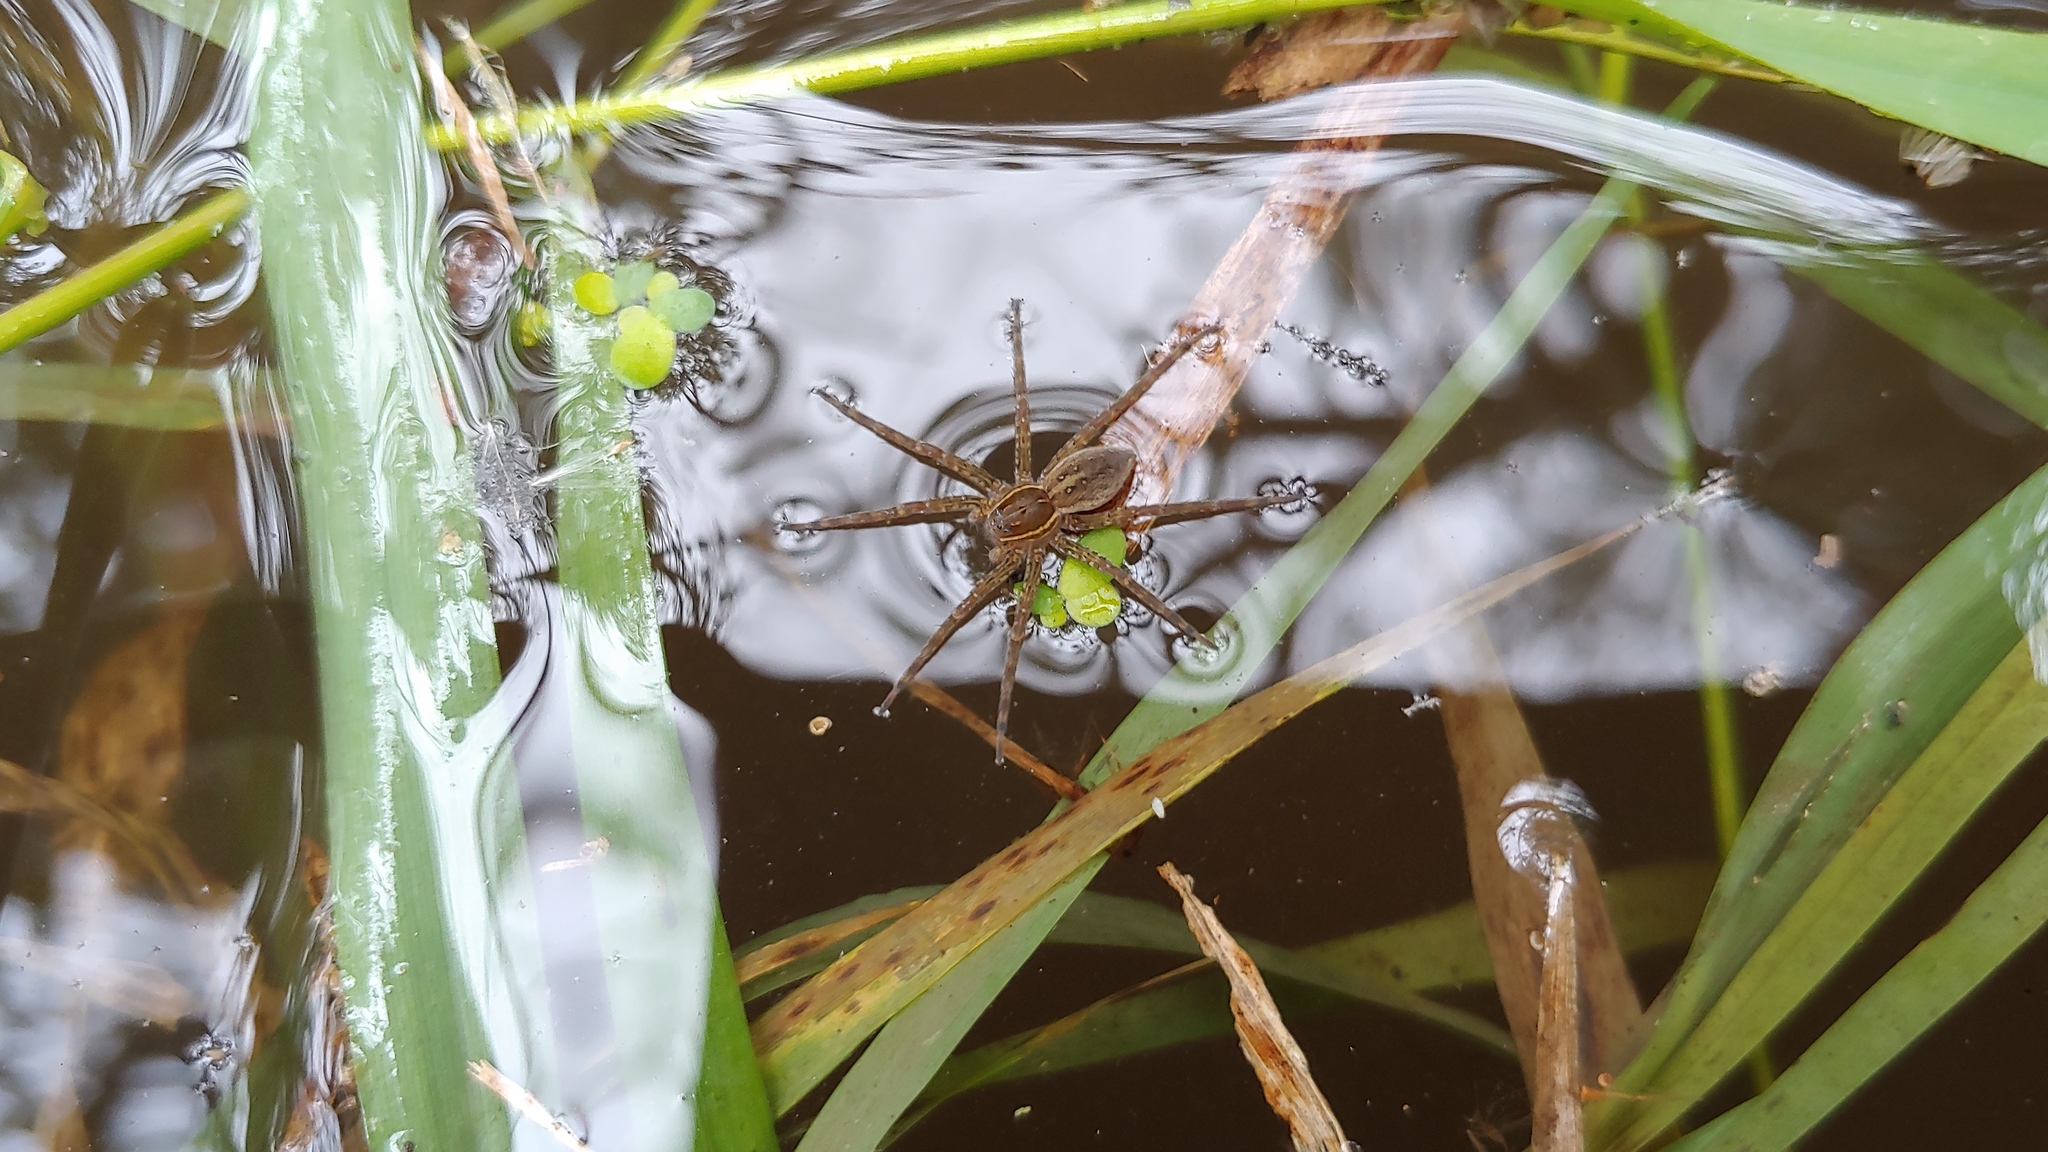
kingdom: Animalia
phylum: Arthropoda
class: Arachnida
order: Araneae
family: Pisauridae
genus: Dolomedes
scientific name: Dolomedes triton
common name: Six-spotted fishing spider
